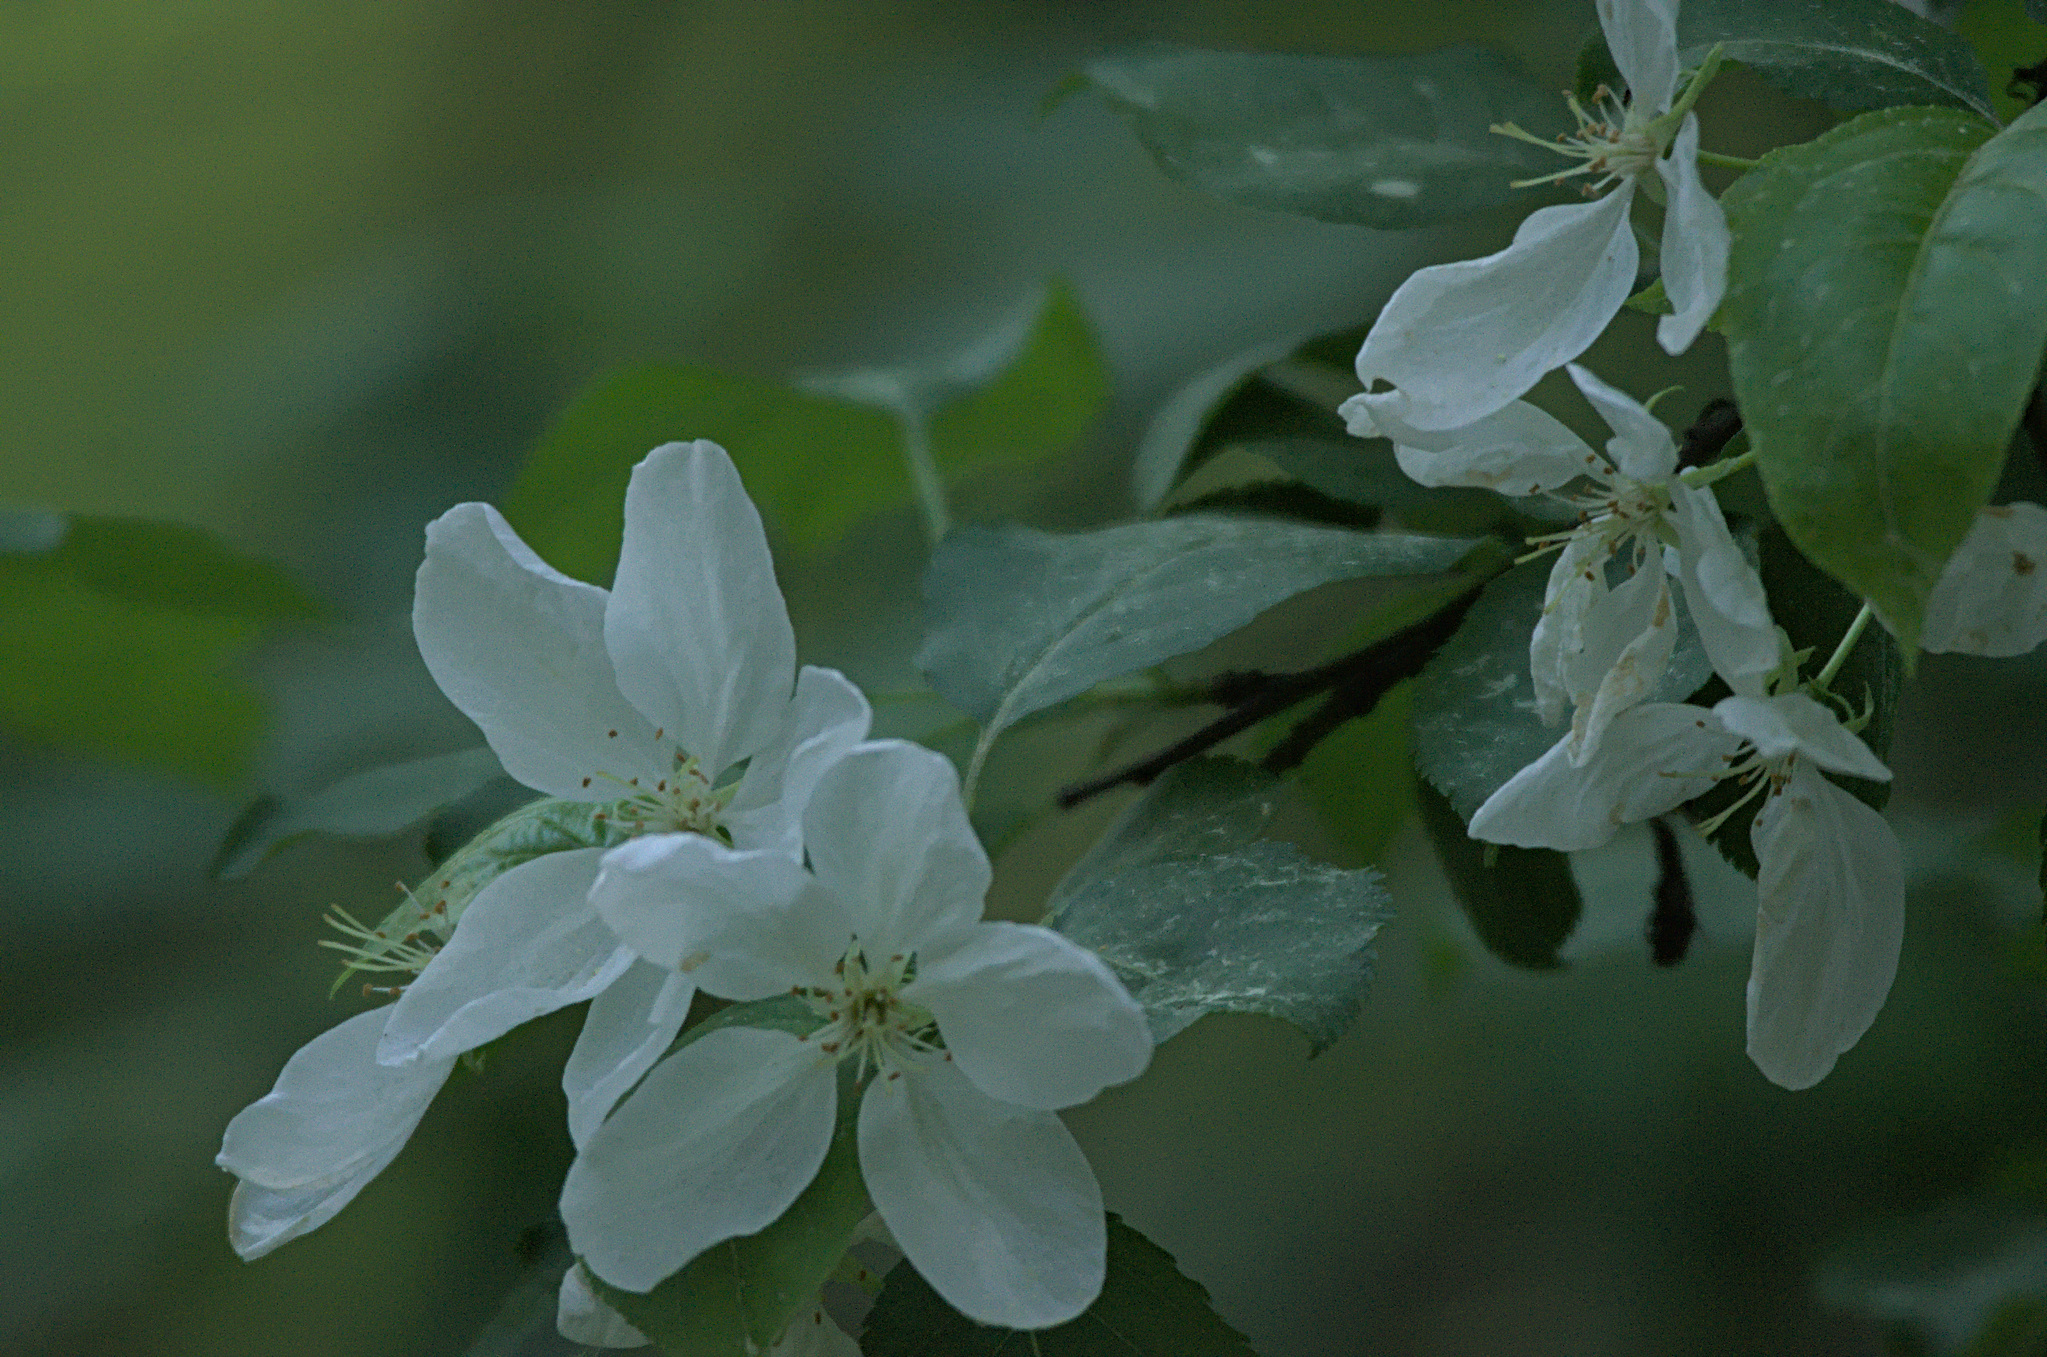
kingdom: Plantae
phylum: Tracheophyta
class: Magnoliopsida
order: Rosales
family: Rosaceae
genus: Malus
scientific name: Malus baccata
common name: Siberian crab
